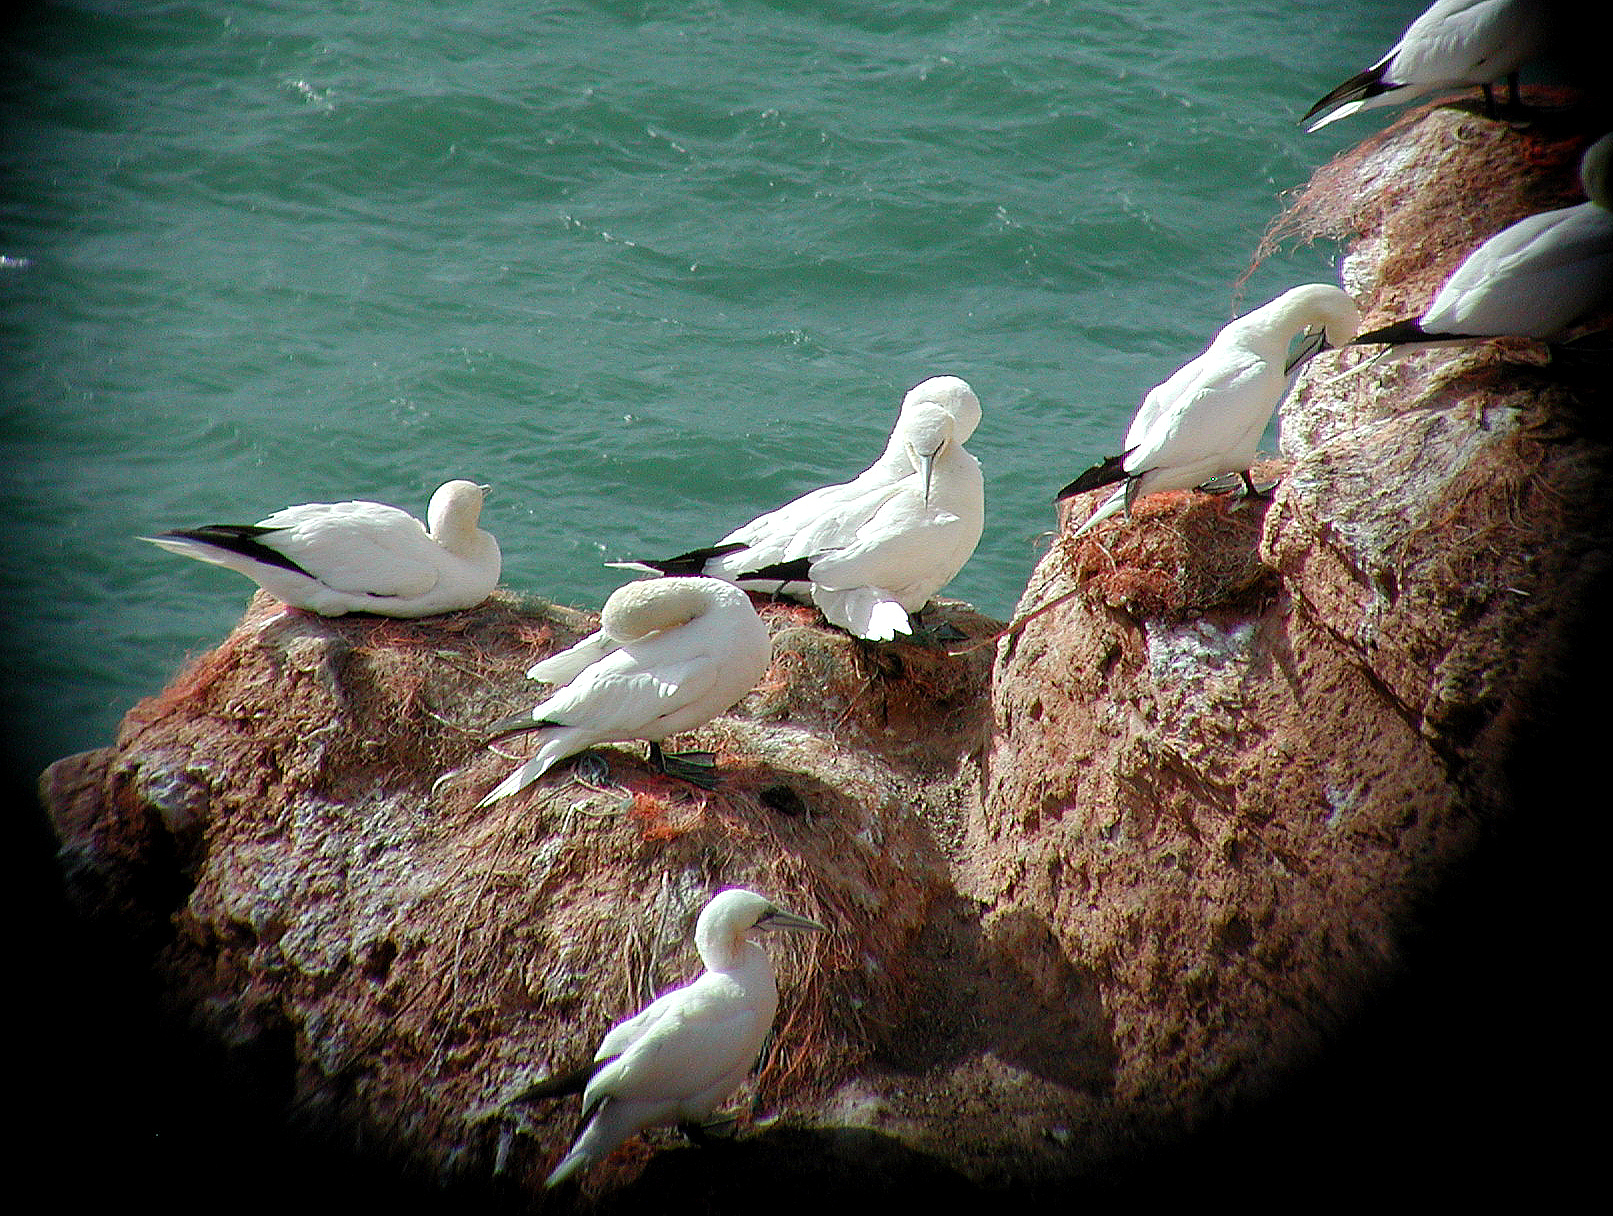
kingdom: Animalia
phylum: Chordata
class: Aves
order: Suliformes
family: Sulidae
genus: Morus
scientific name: Morus bassanus
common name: Northern gannet
